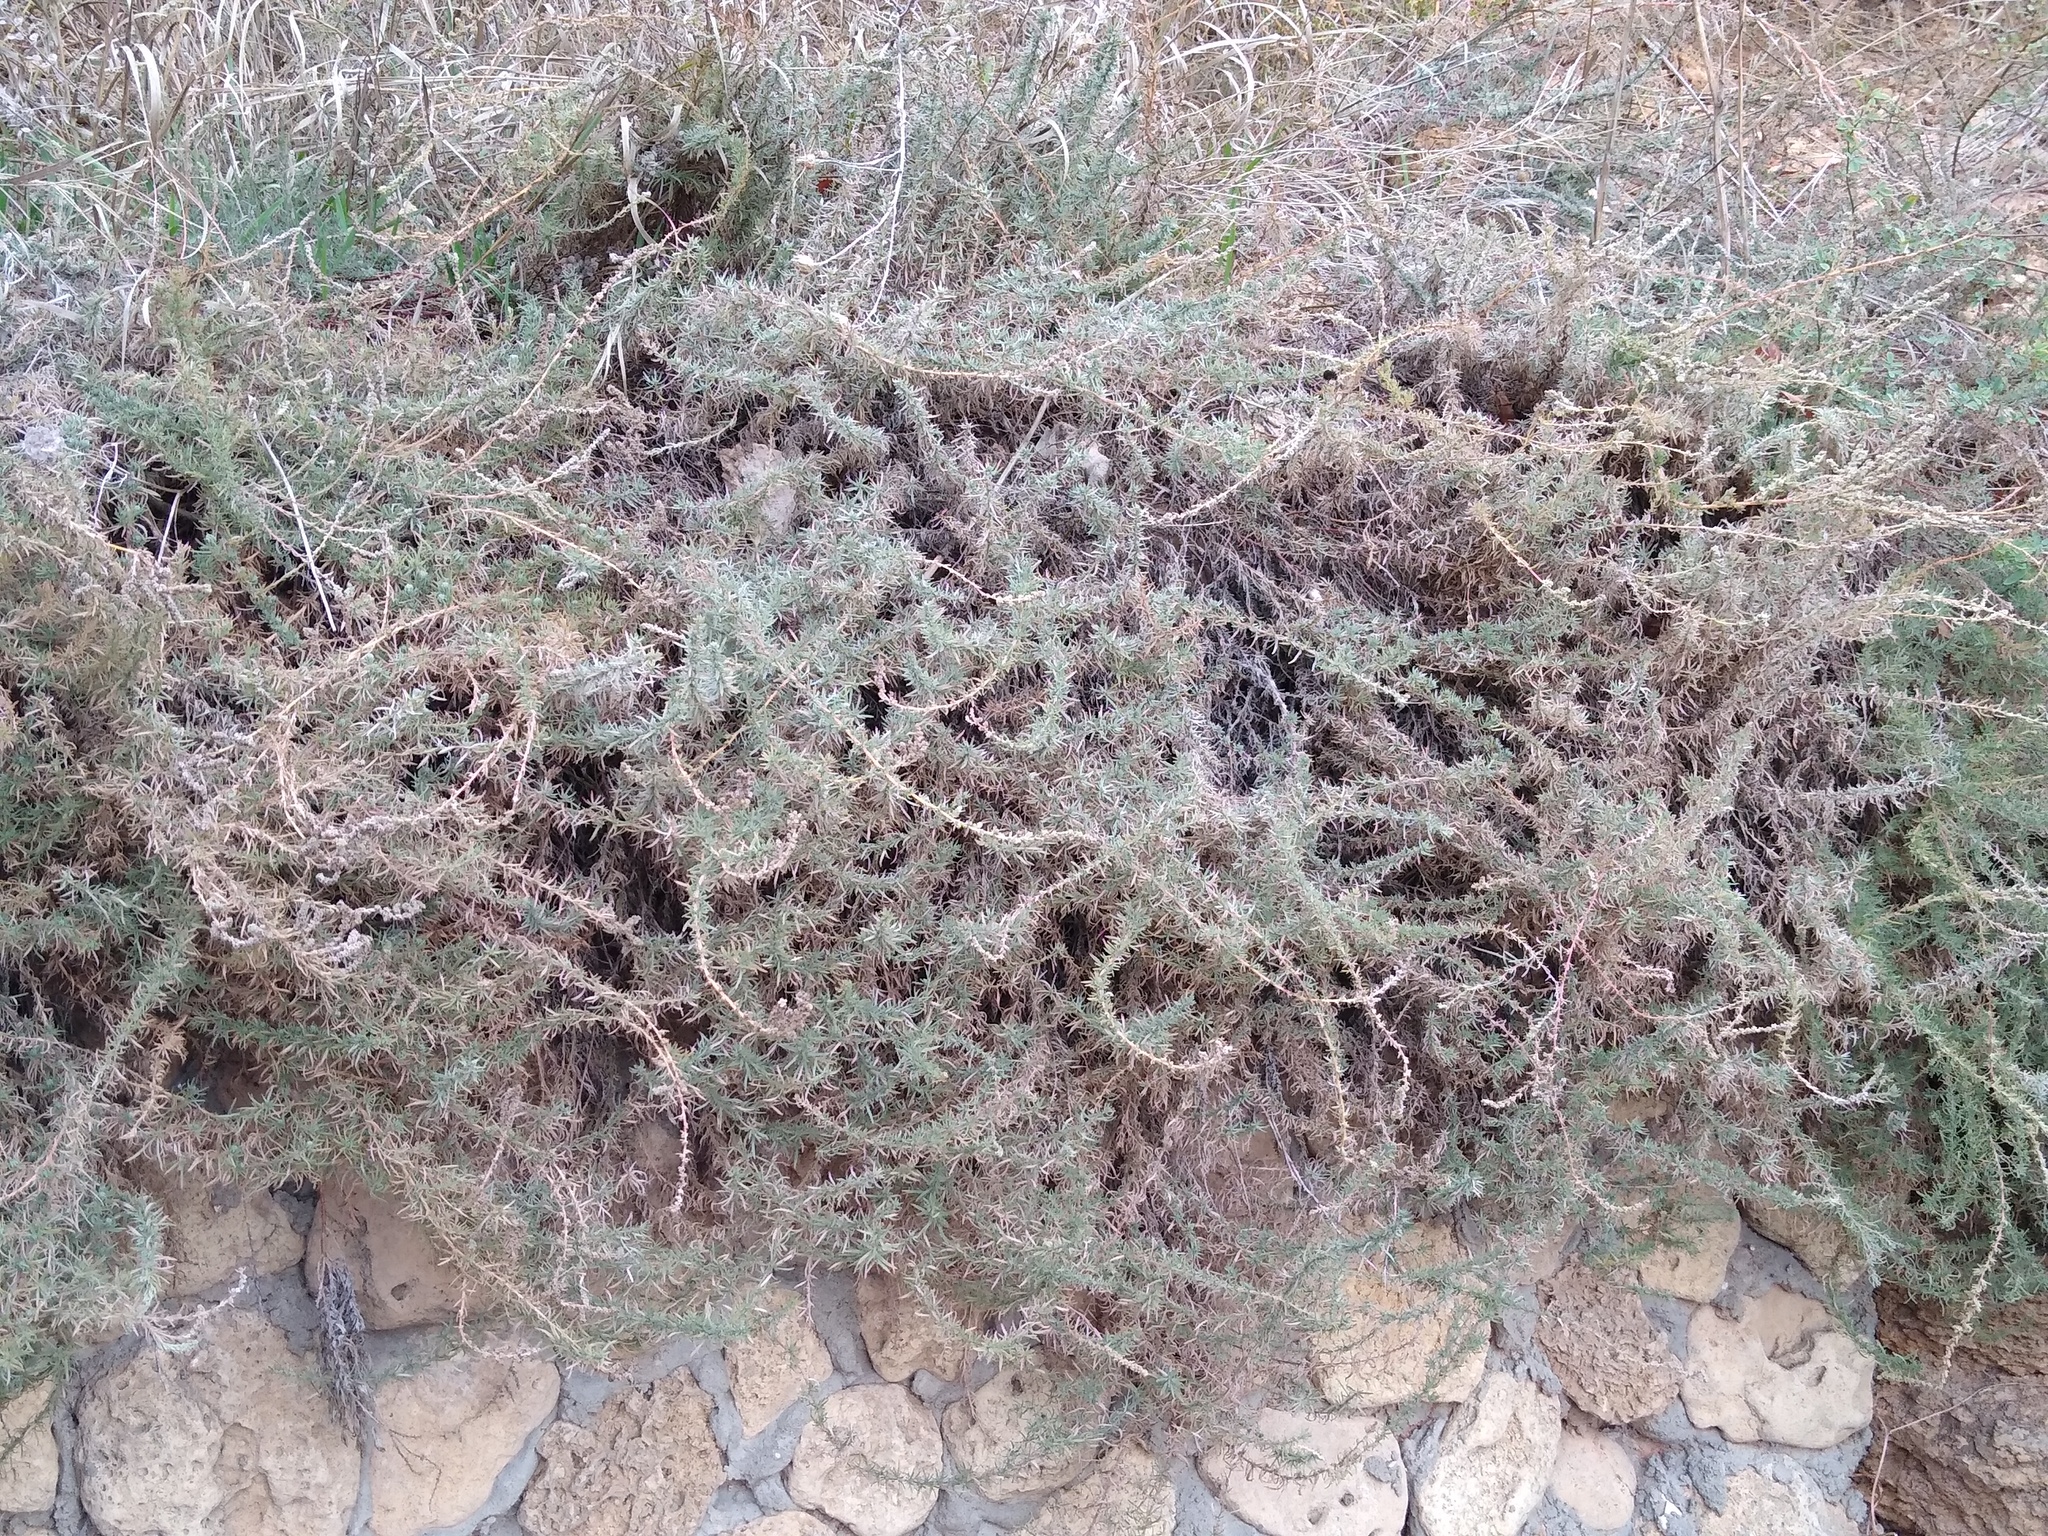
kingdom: Plantae
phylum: Tracheophyta
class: Magnoliopsida
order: Caryophyllales
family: Amaranthaceae
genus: Bassia
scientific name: Bassia prostrata
